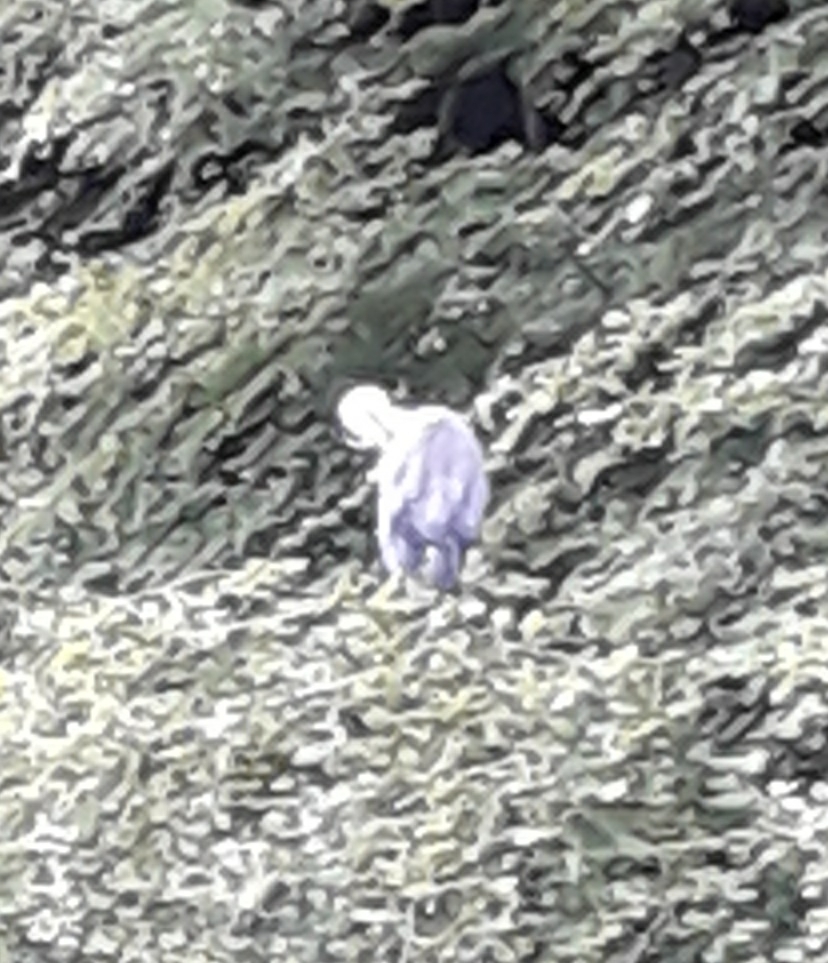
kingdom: Animalia
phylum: Chordata
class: Aves
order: Pelecaniformes
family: Ardeidae
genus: Ardea
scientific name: Ardea cinerea
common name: Grey heron
